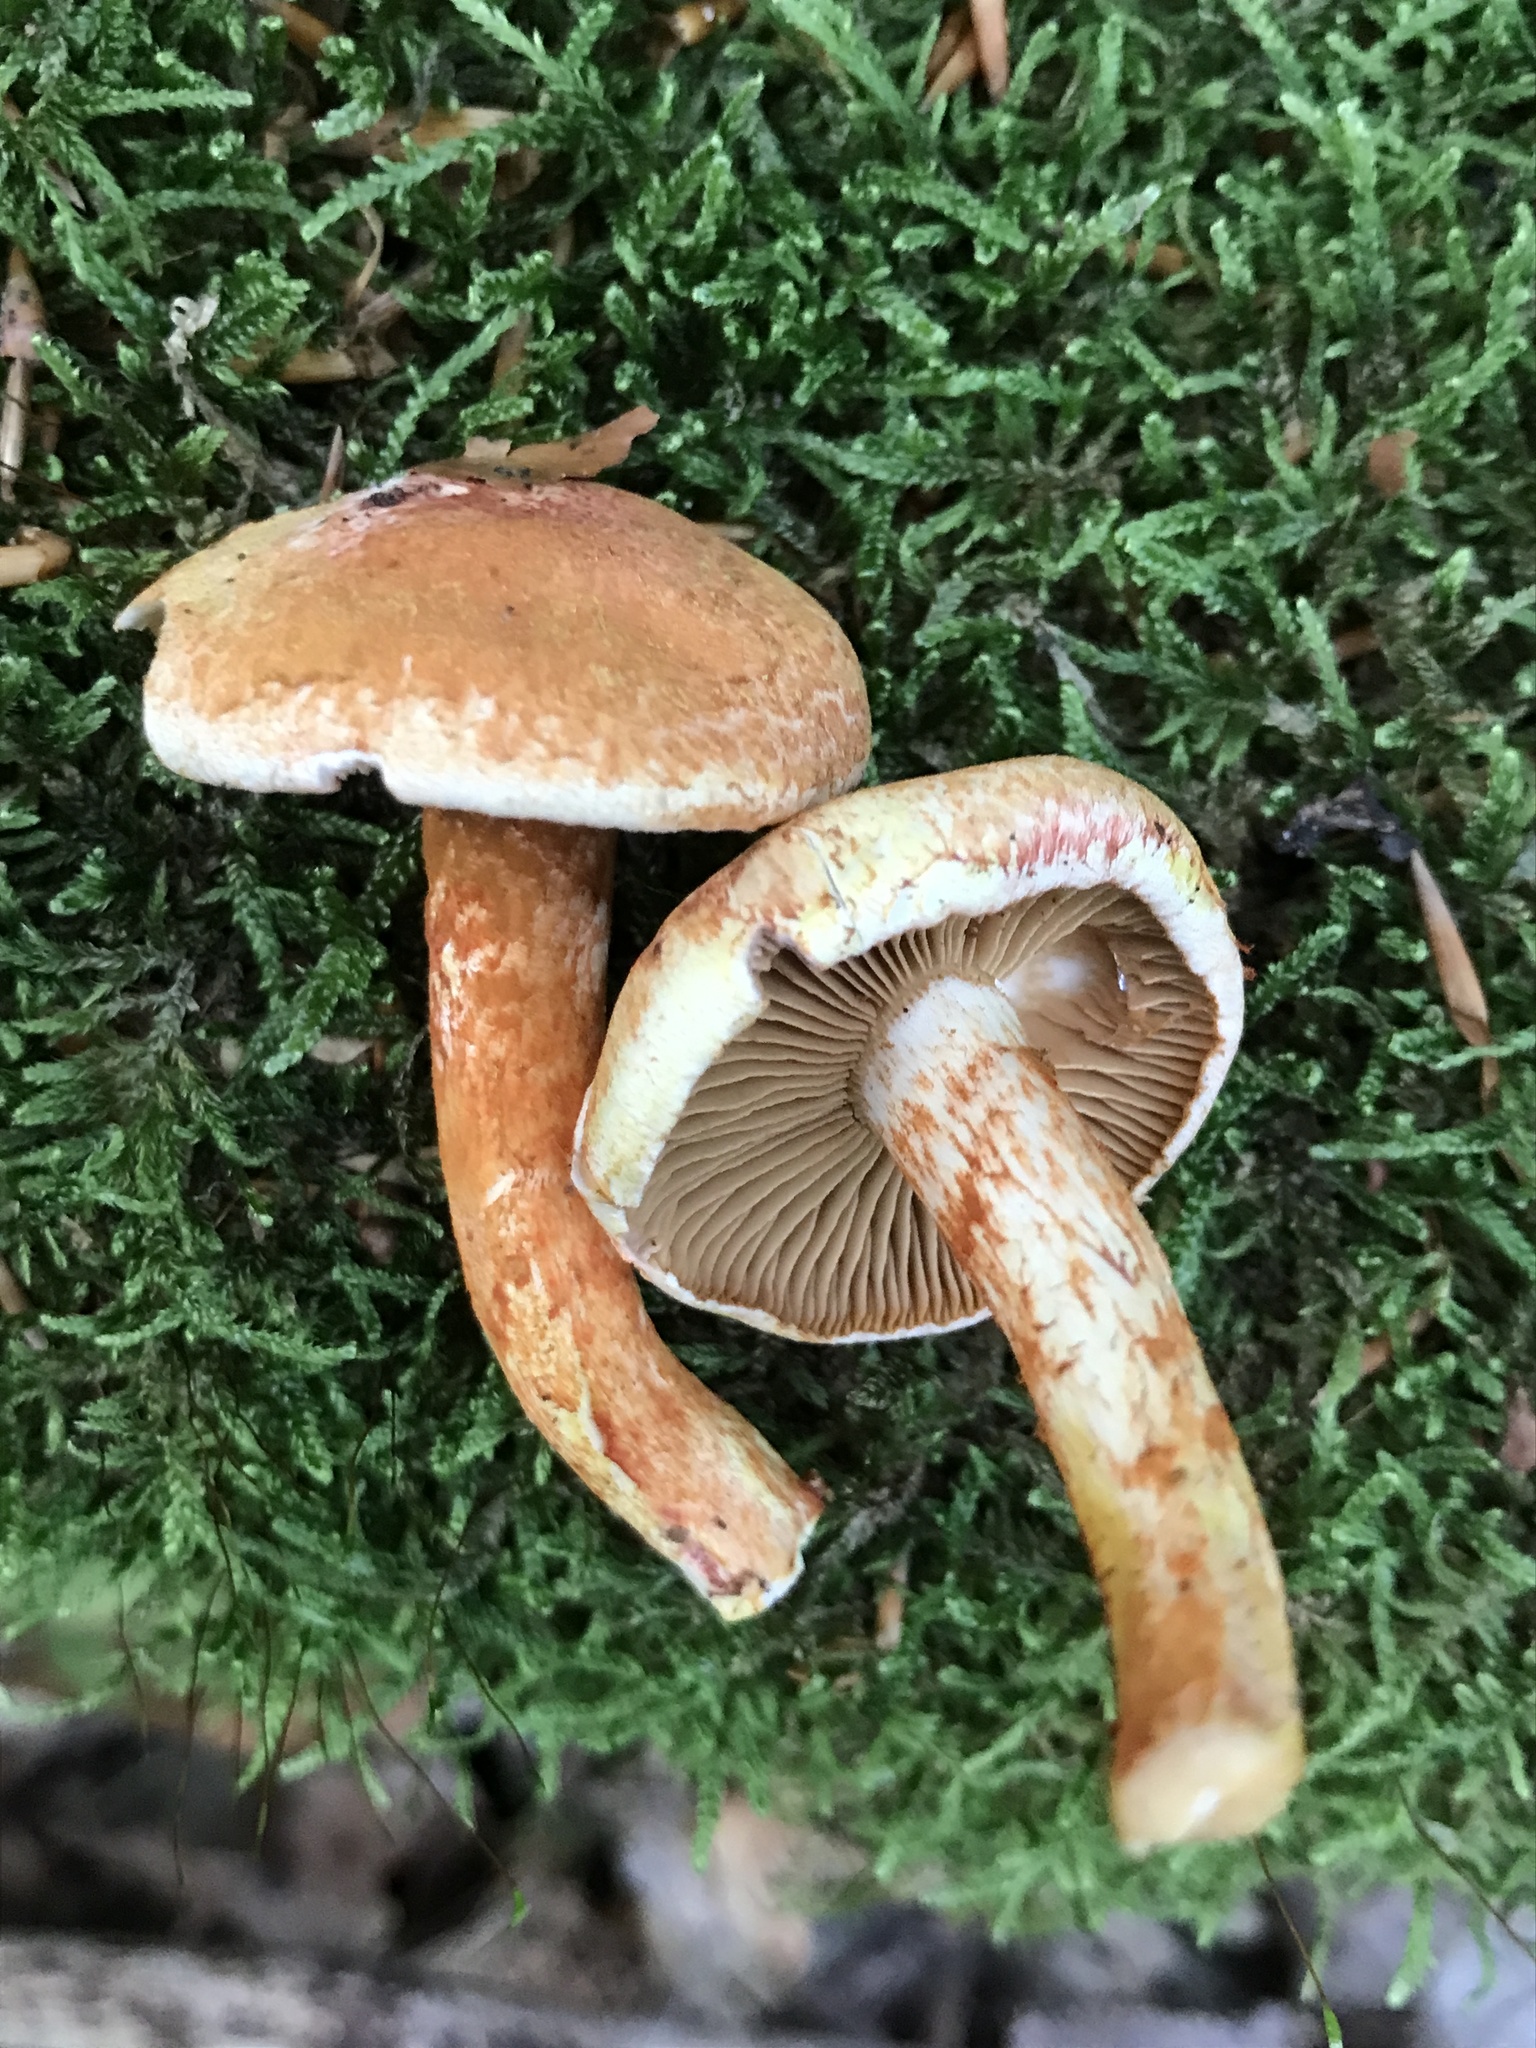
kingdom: Fungi
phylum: Basidiomycota
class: Agaricomycetes
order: Agaricales
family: Cortinariaceae
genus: Cortinarius
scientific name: Cortinarius bolaris
